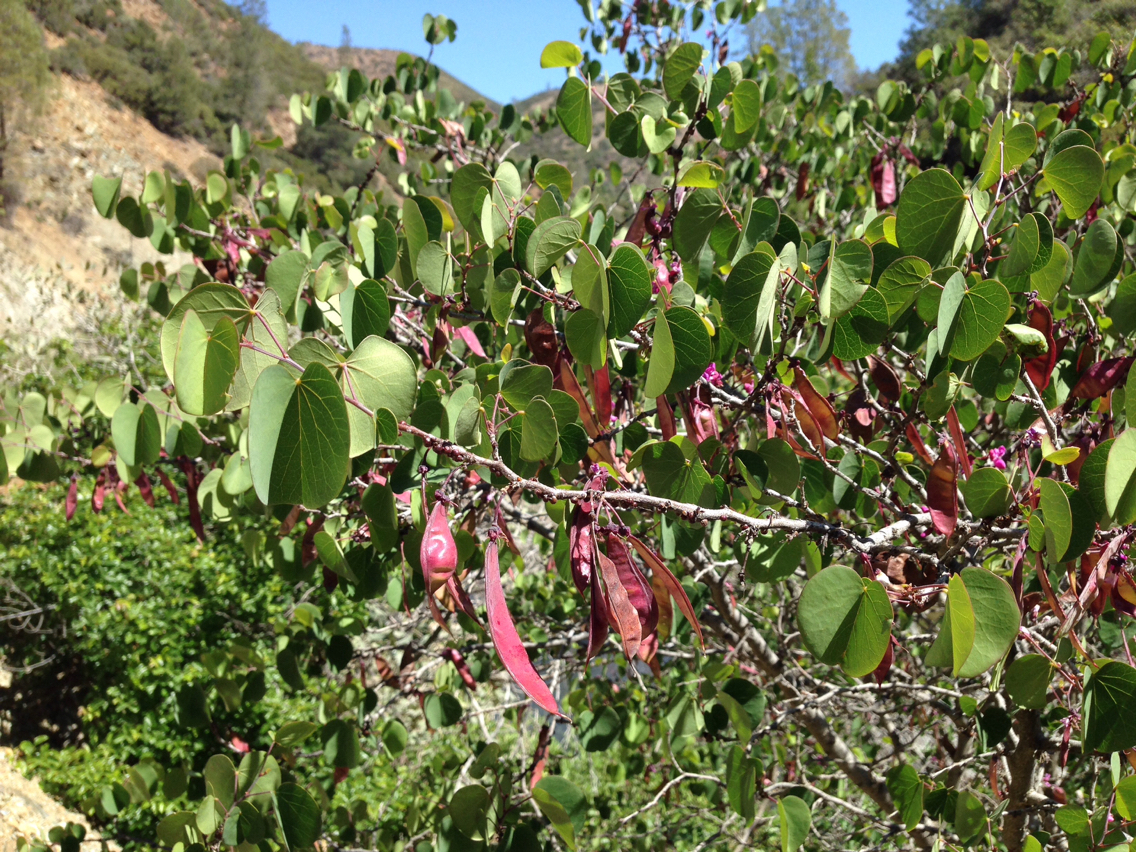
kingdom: Plantae
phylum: Tracheophyta
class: Magnoliopsida
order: Fabales
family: Fabaceae
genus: Cercis
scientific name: Cercis occidentalis
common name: California redbud
